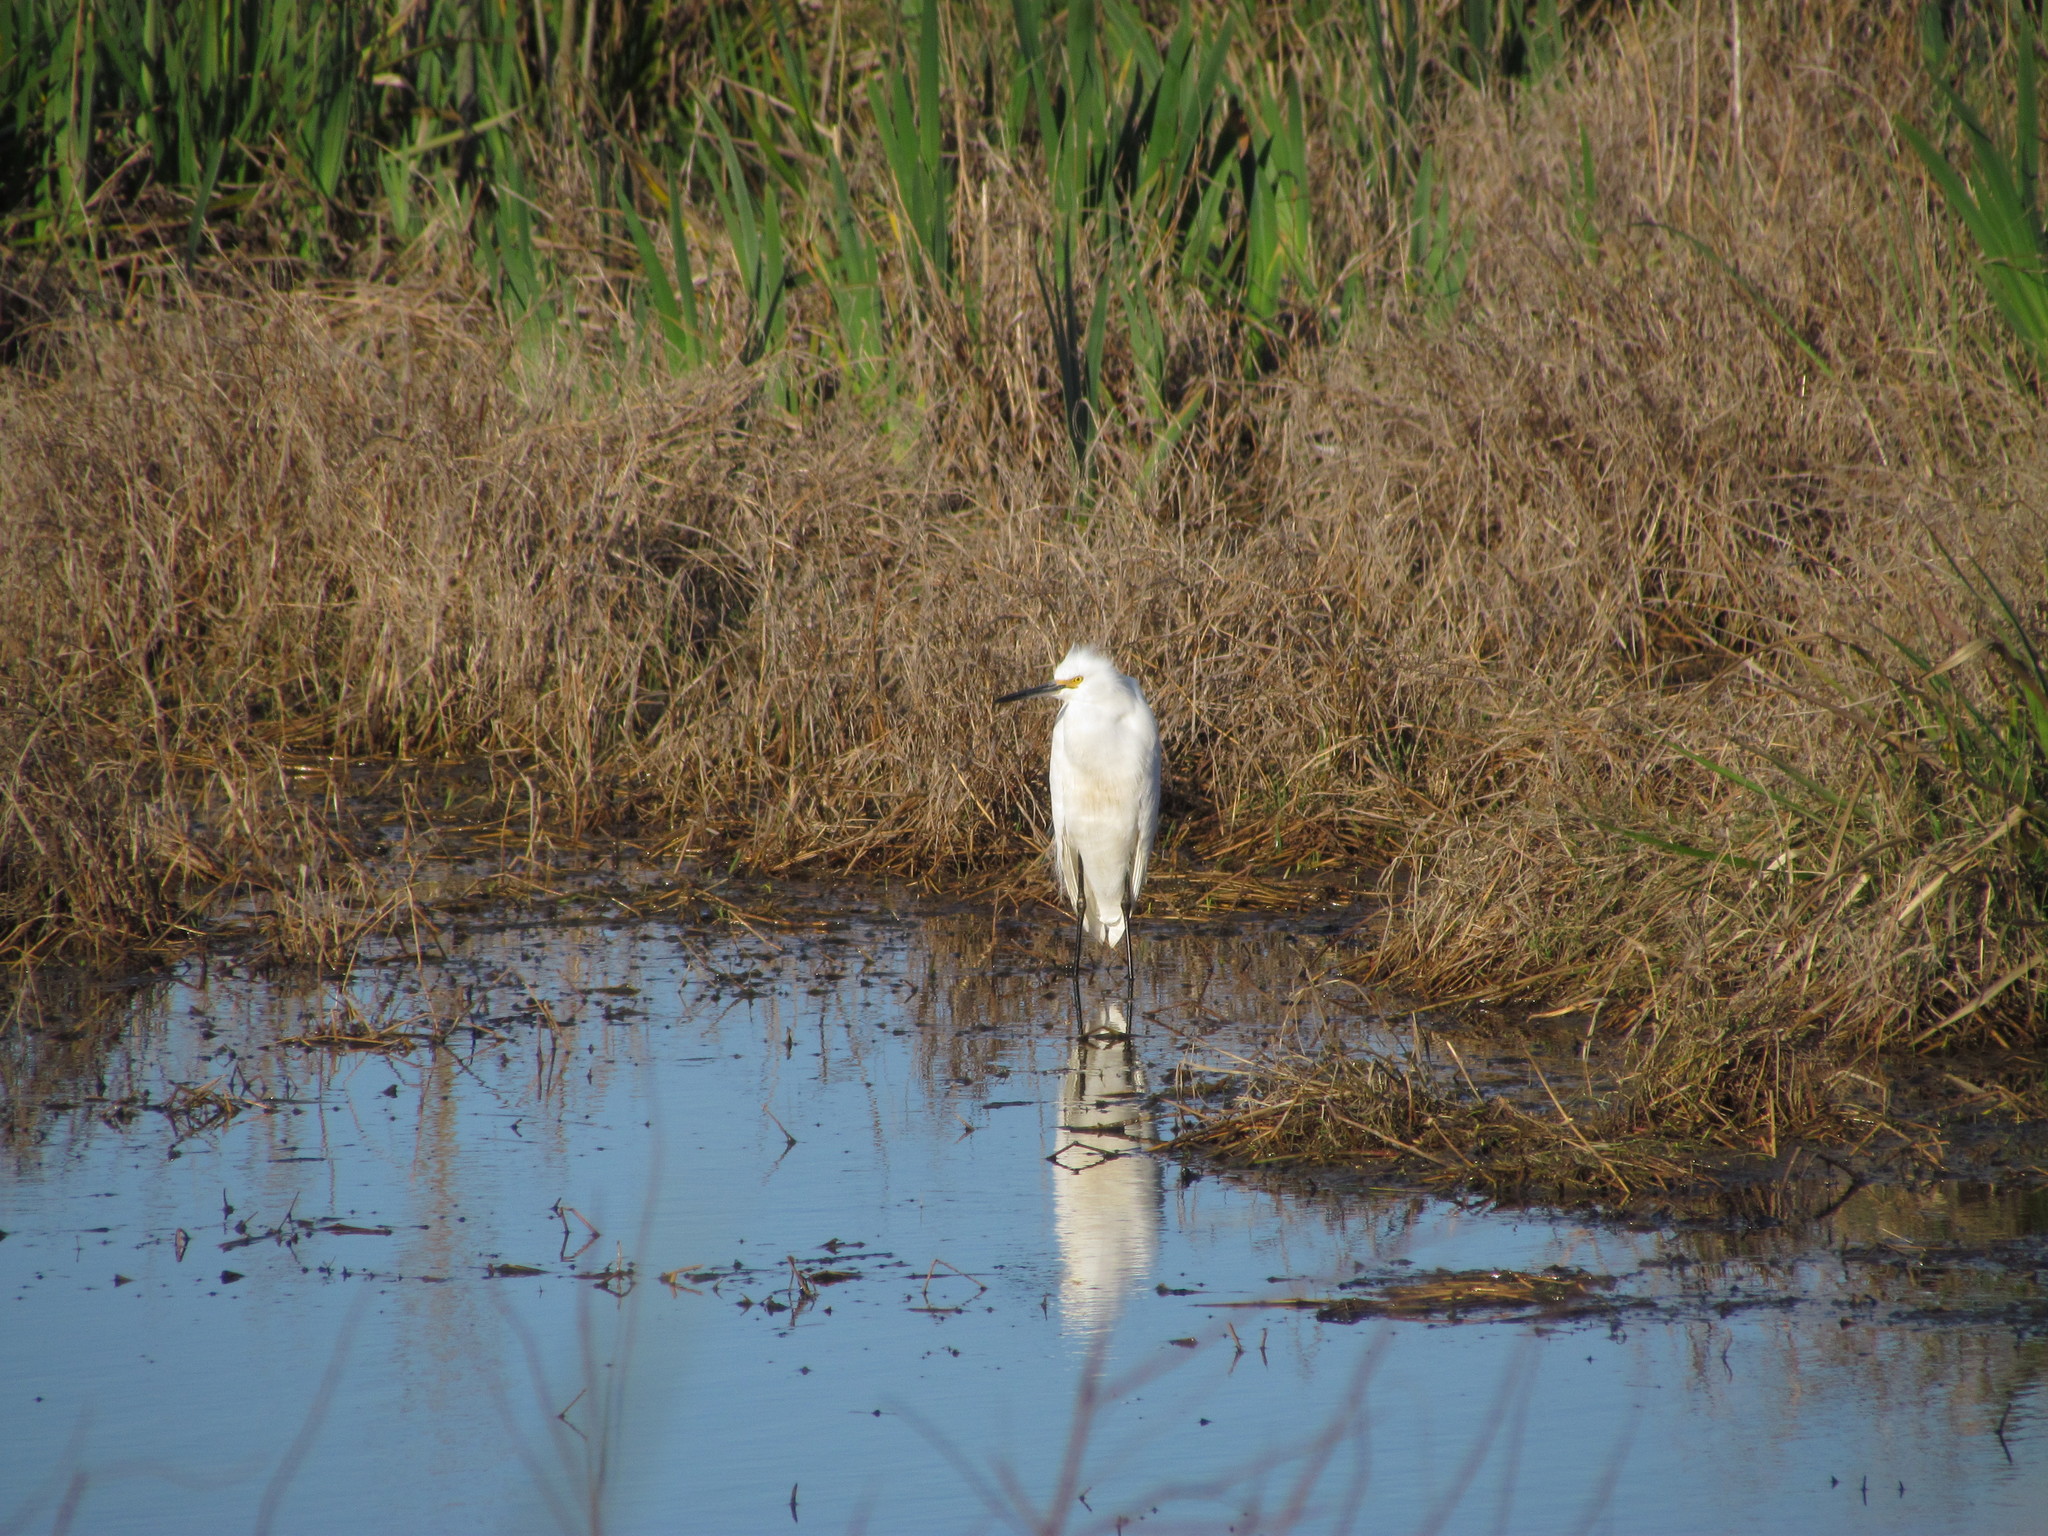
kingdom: Animalia
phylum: Chordata
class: Aves
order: Pelecaniformes
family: Ardeidae
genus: Egretta
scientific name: Egretta thula
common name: Snowy egret
